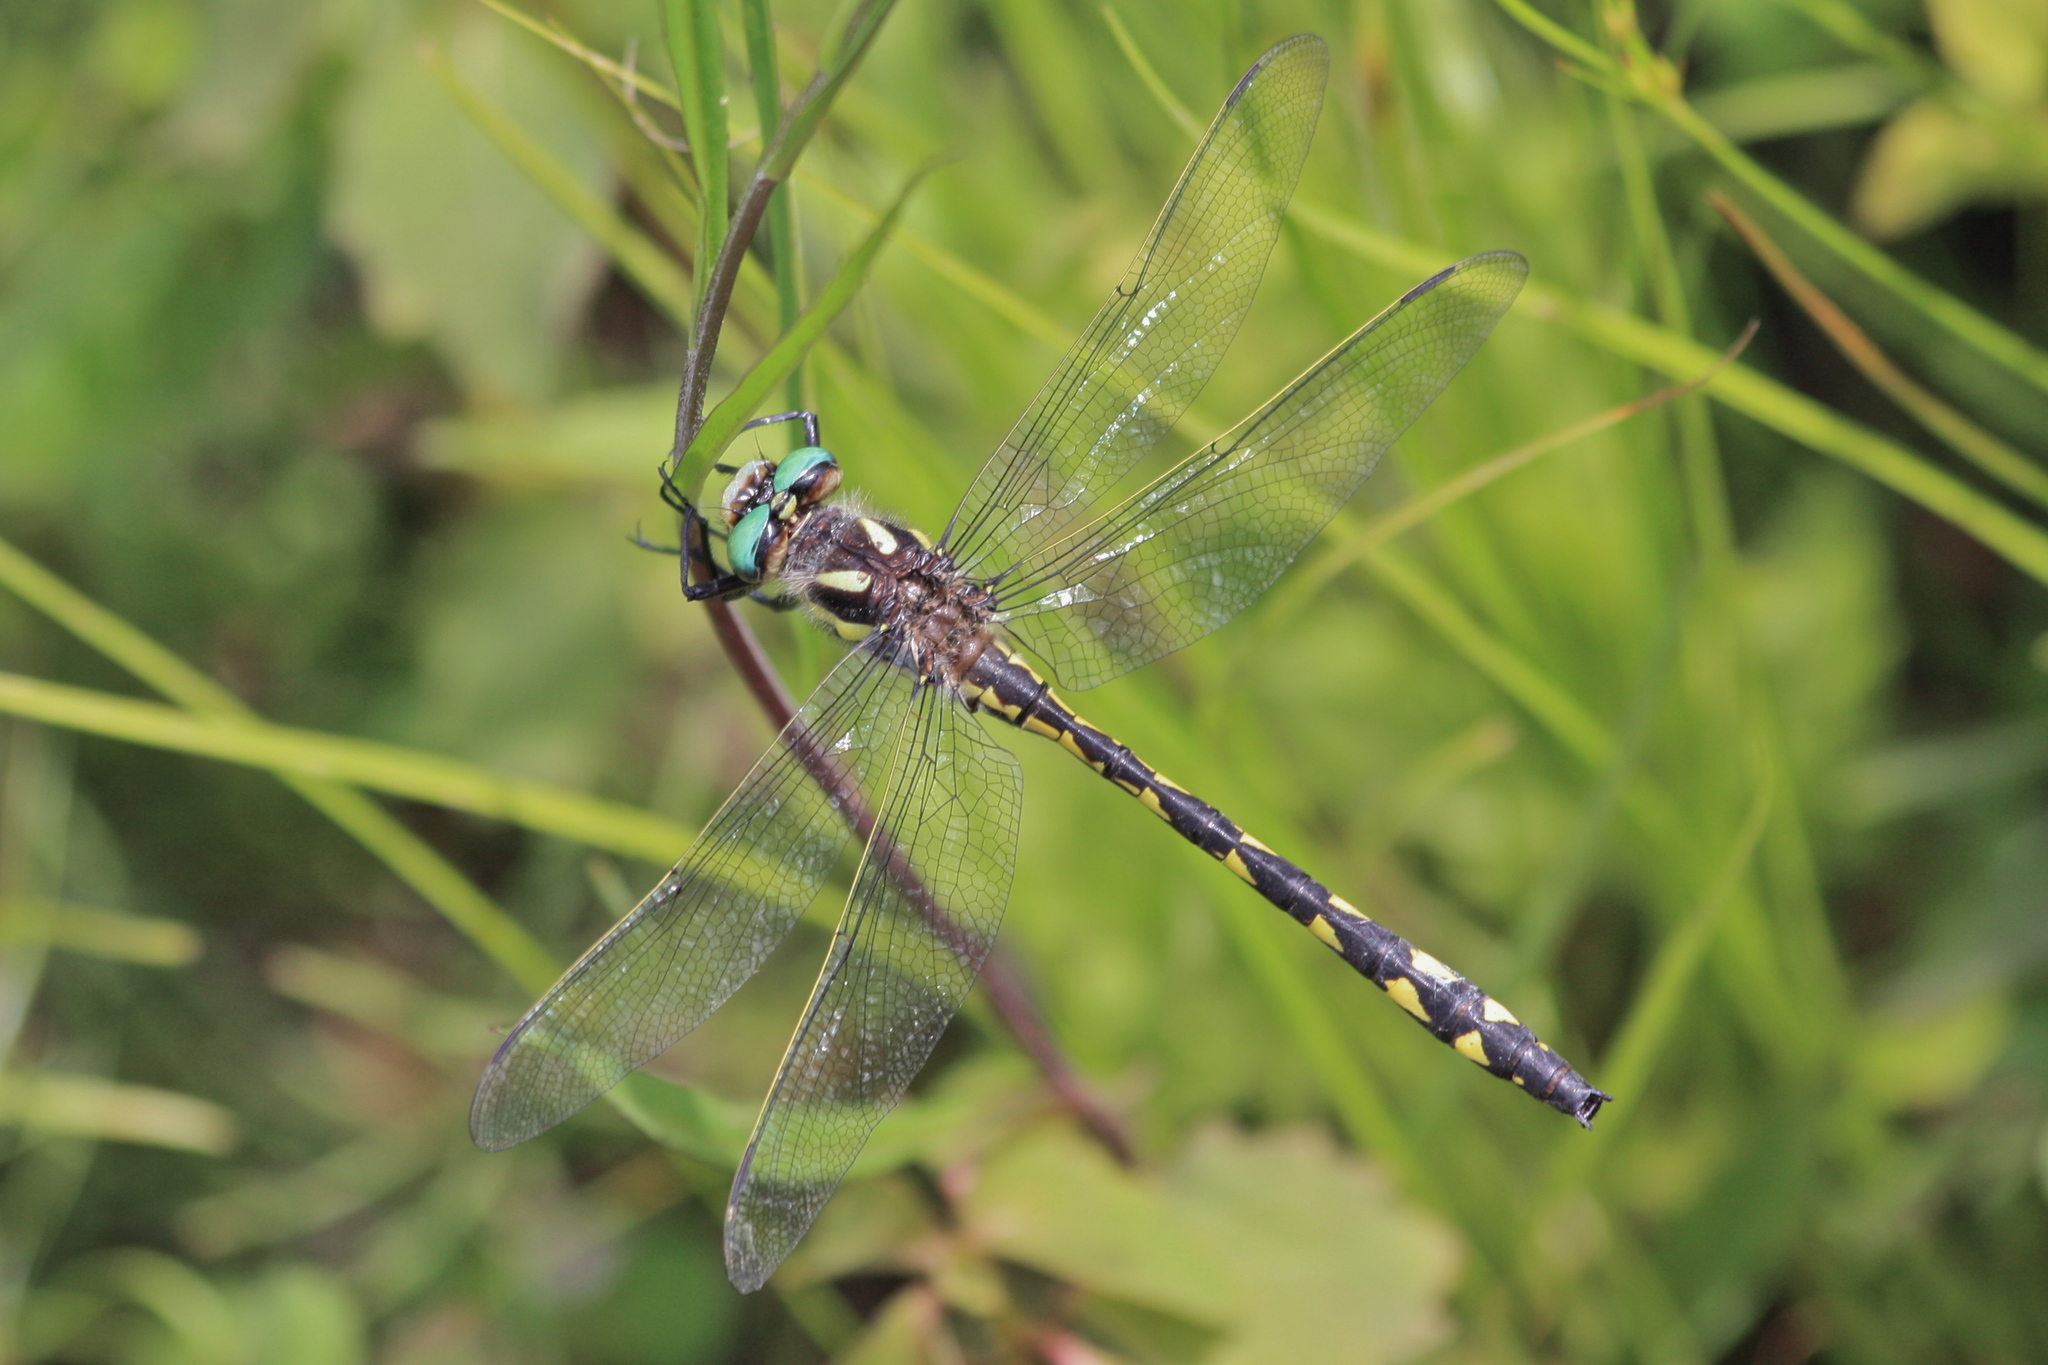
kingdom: Animalia
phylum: Arthropoda
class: Insecta
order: Odonata
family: Cordulegastridae
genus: Cordulegaster
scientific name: Cordulegaster diastatops
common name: Delta-spotted spiketail
